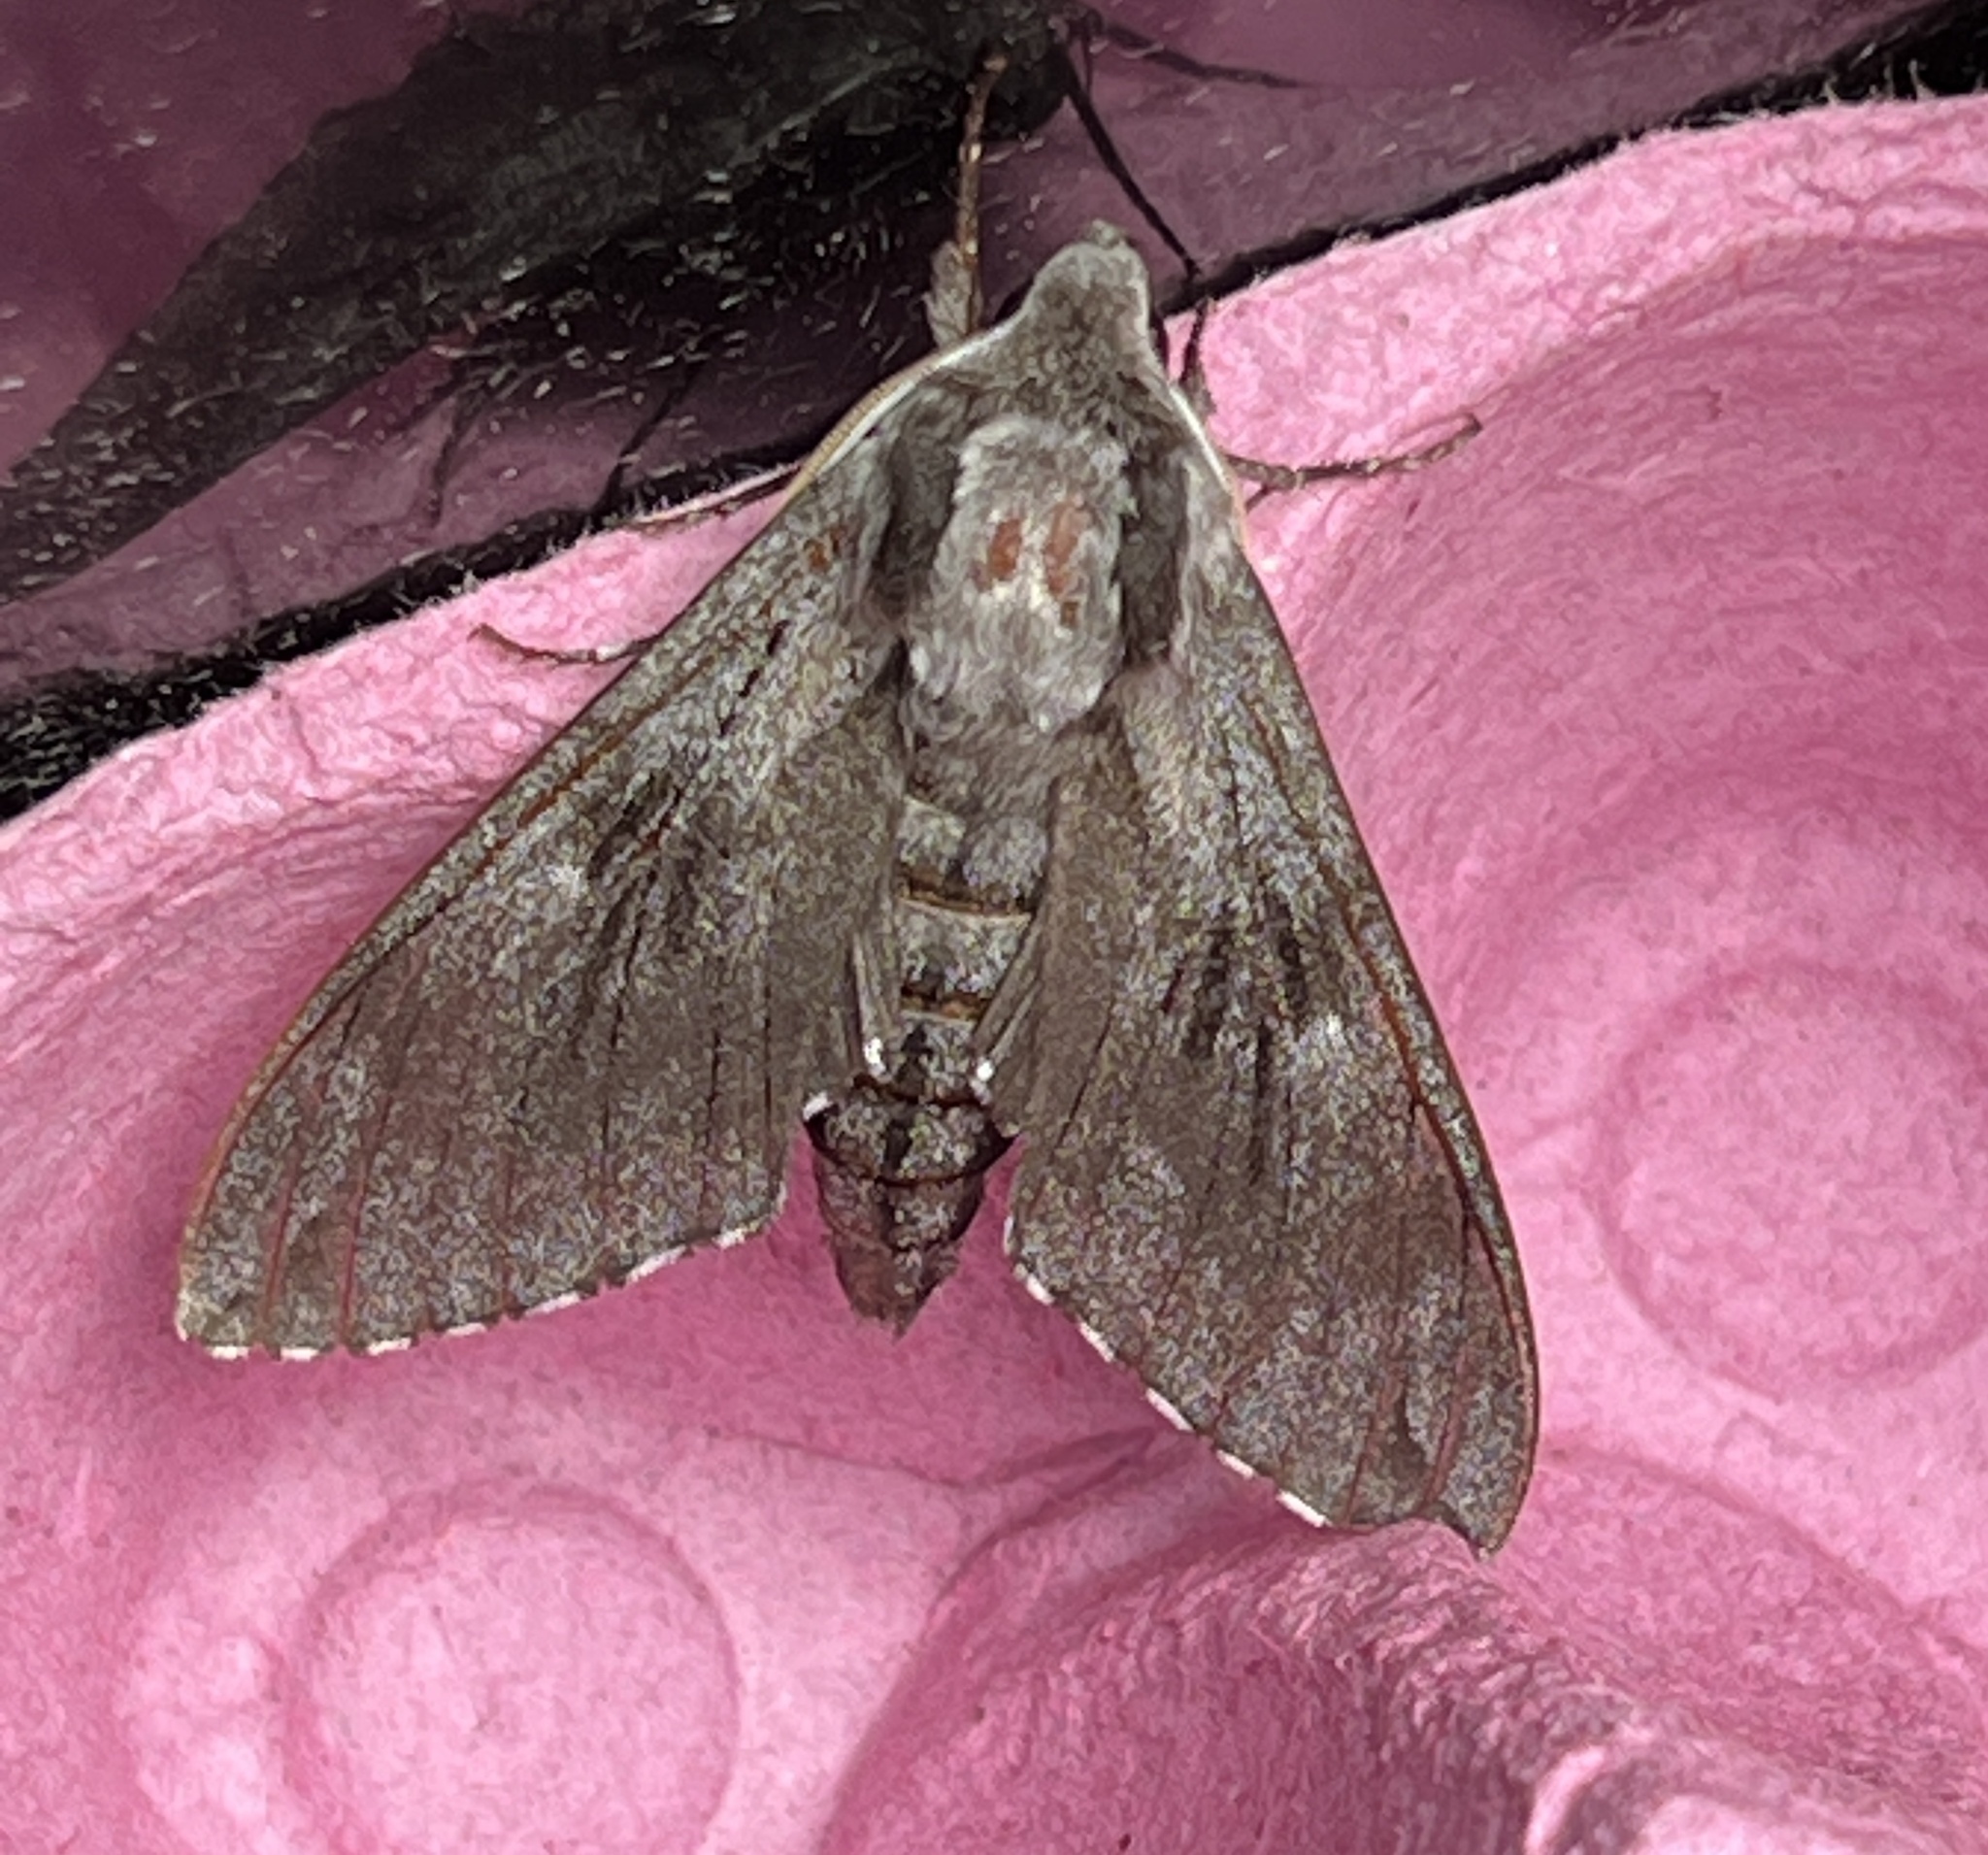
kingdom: Animalia
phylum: Arthropoda
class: Insecta
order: Lepidoptera
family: Sphingidae
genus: Sphinx
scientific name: Sphinx pinastri
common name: Pine hawk-moth
